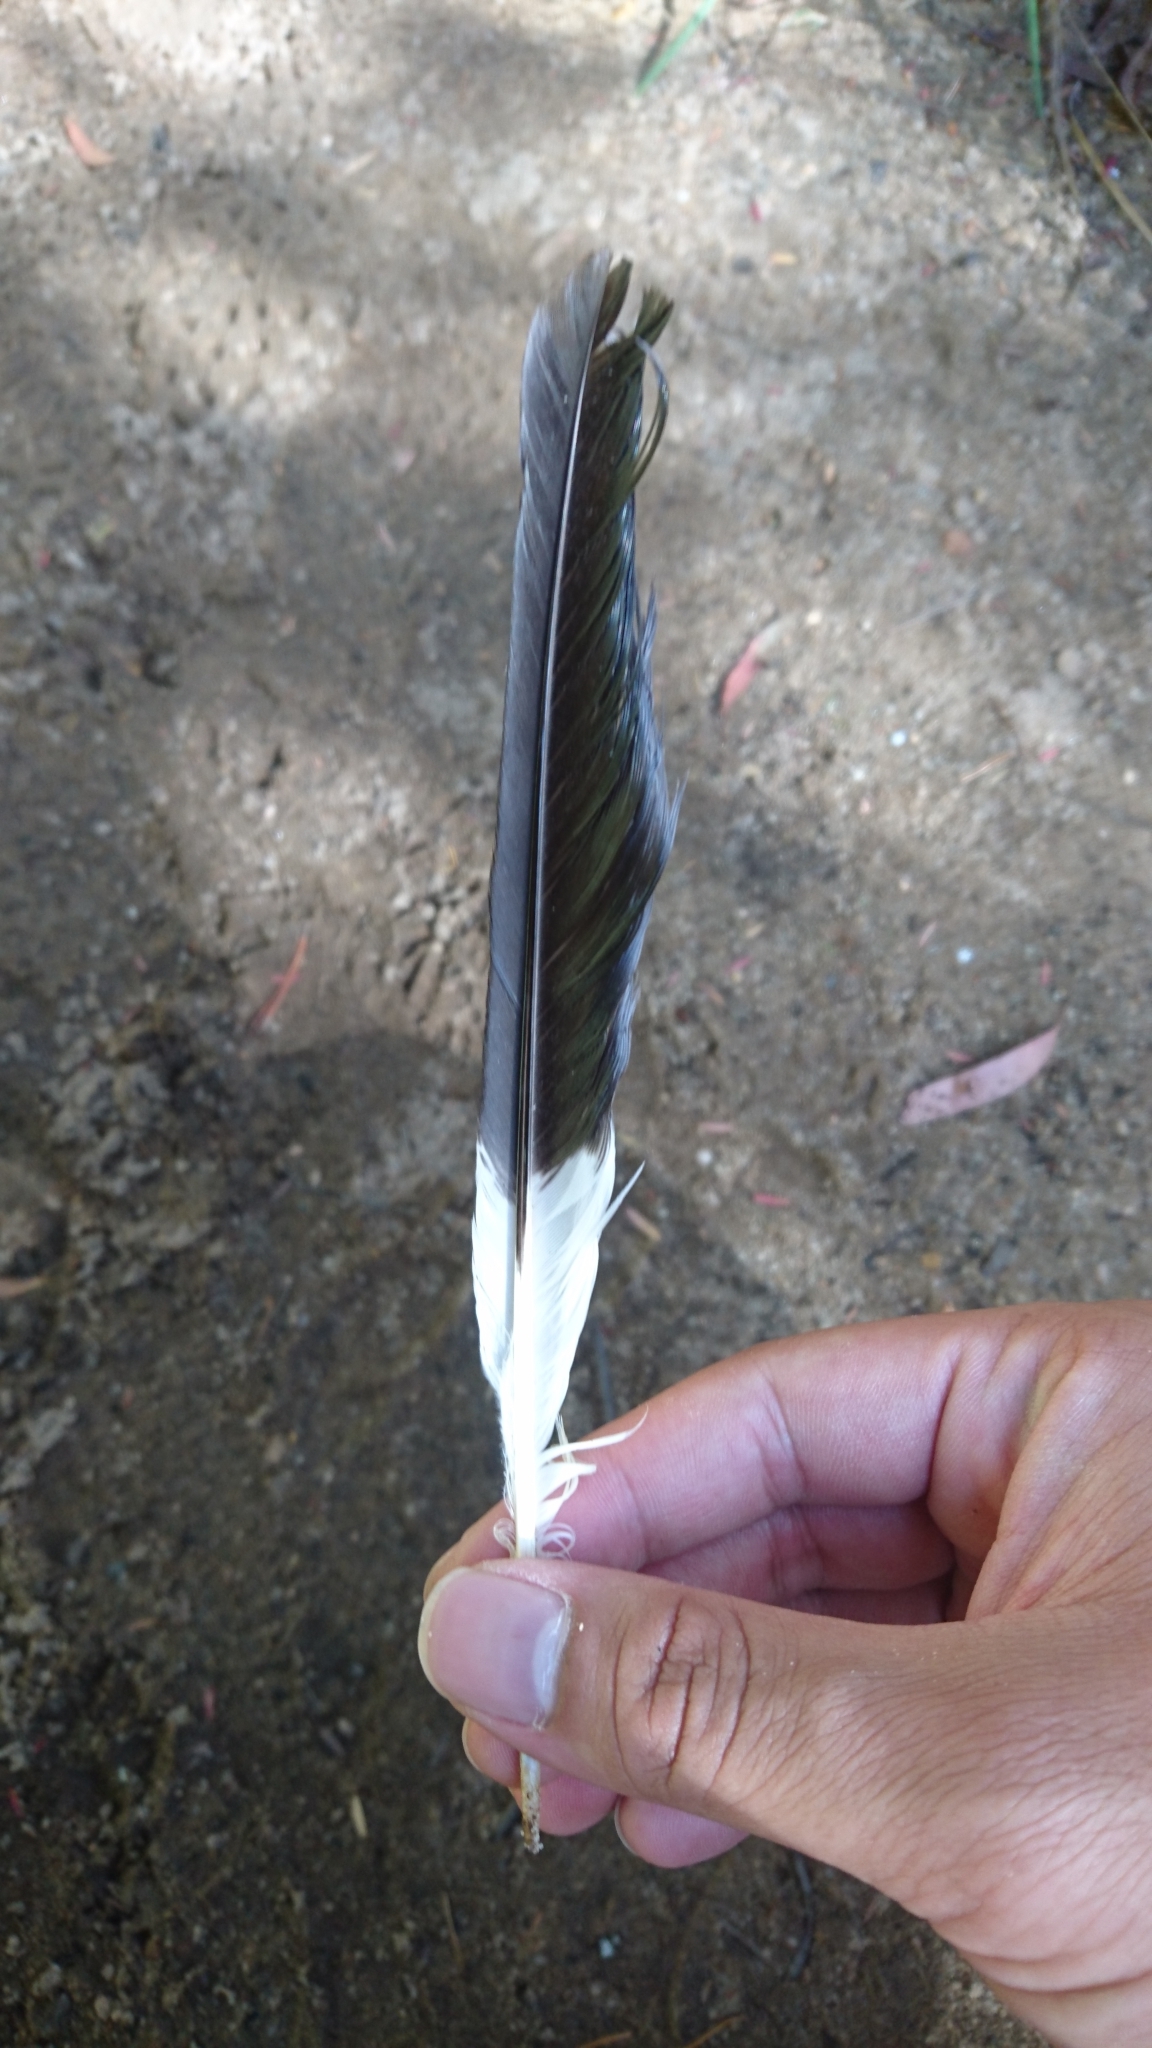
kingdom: Animalia
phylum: Chordata
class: Aves
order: Passeriformes
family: Cracticidae
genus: Strepera
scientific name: Strepera graculina
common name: Pied currawong
